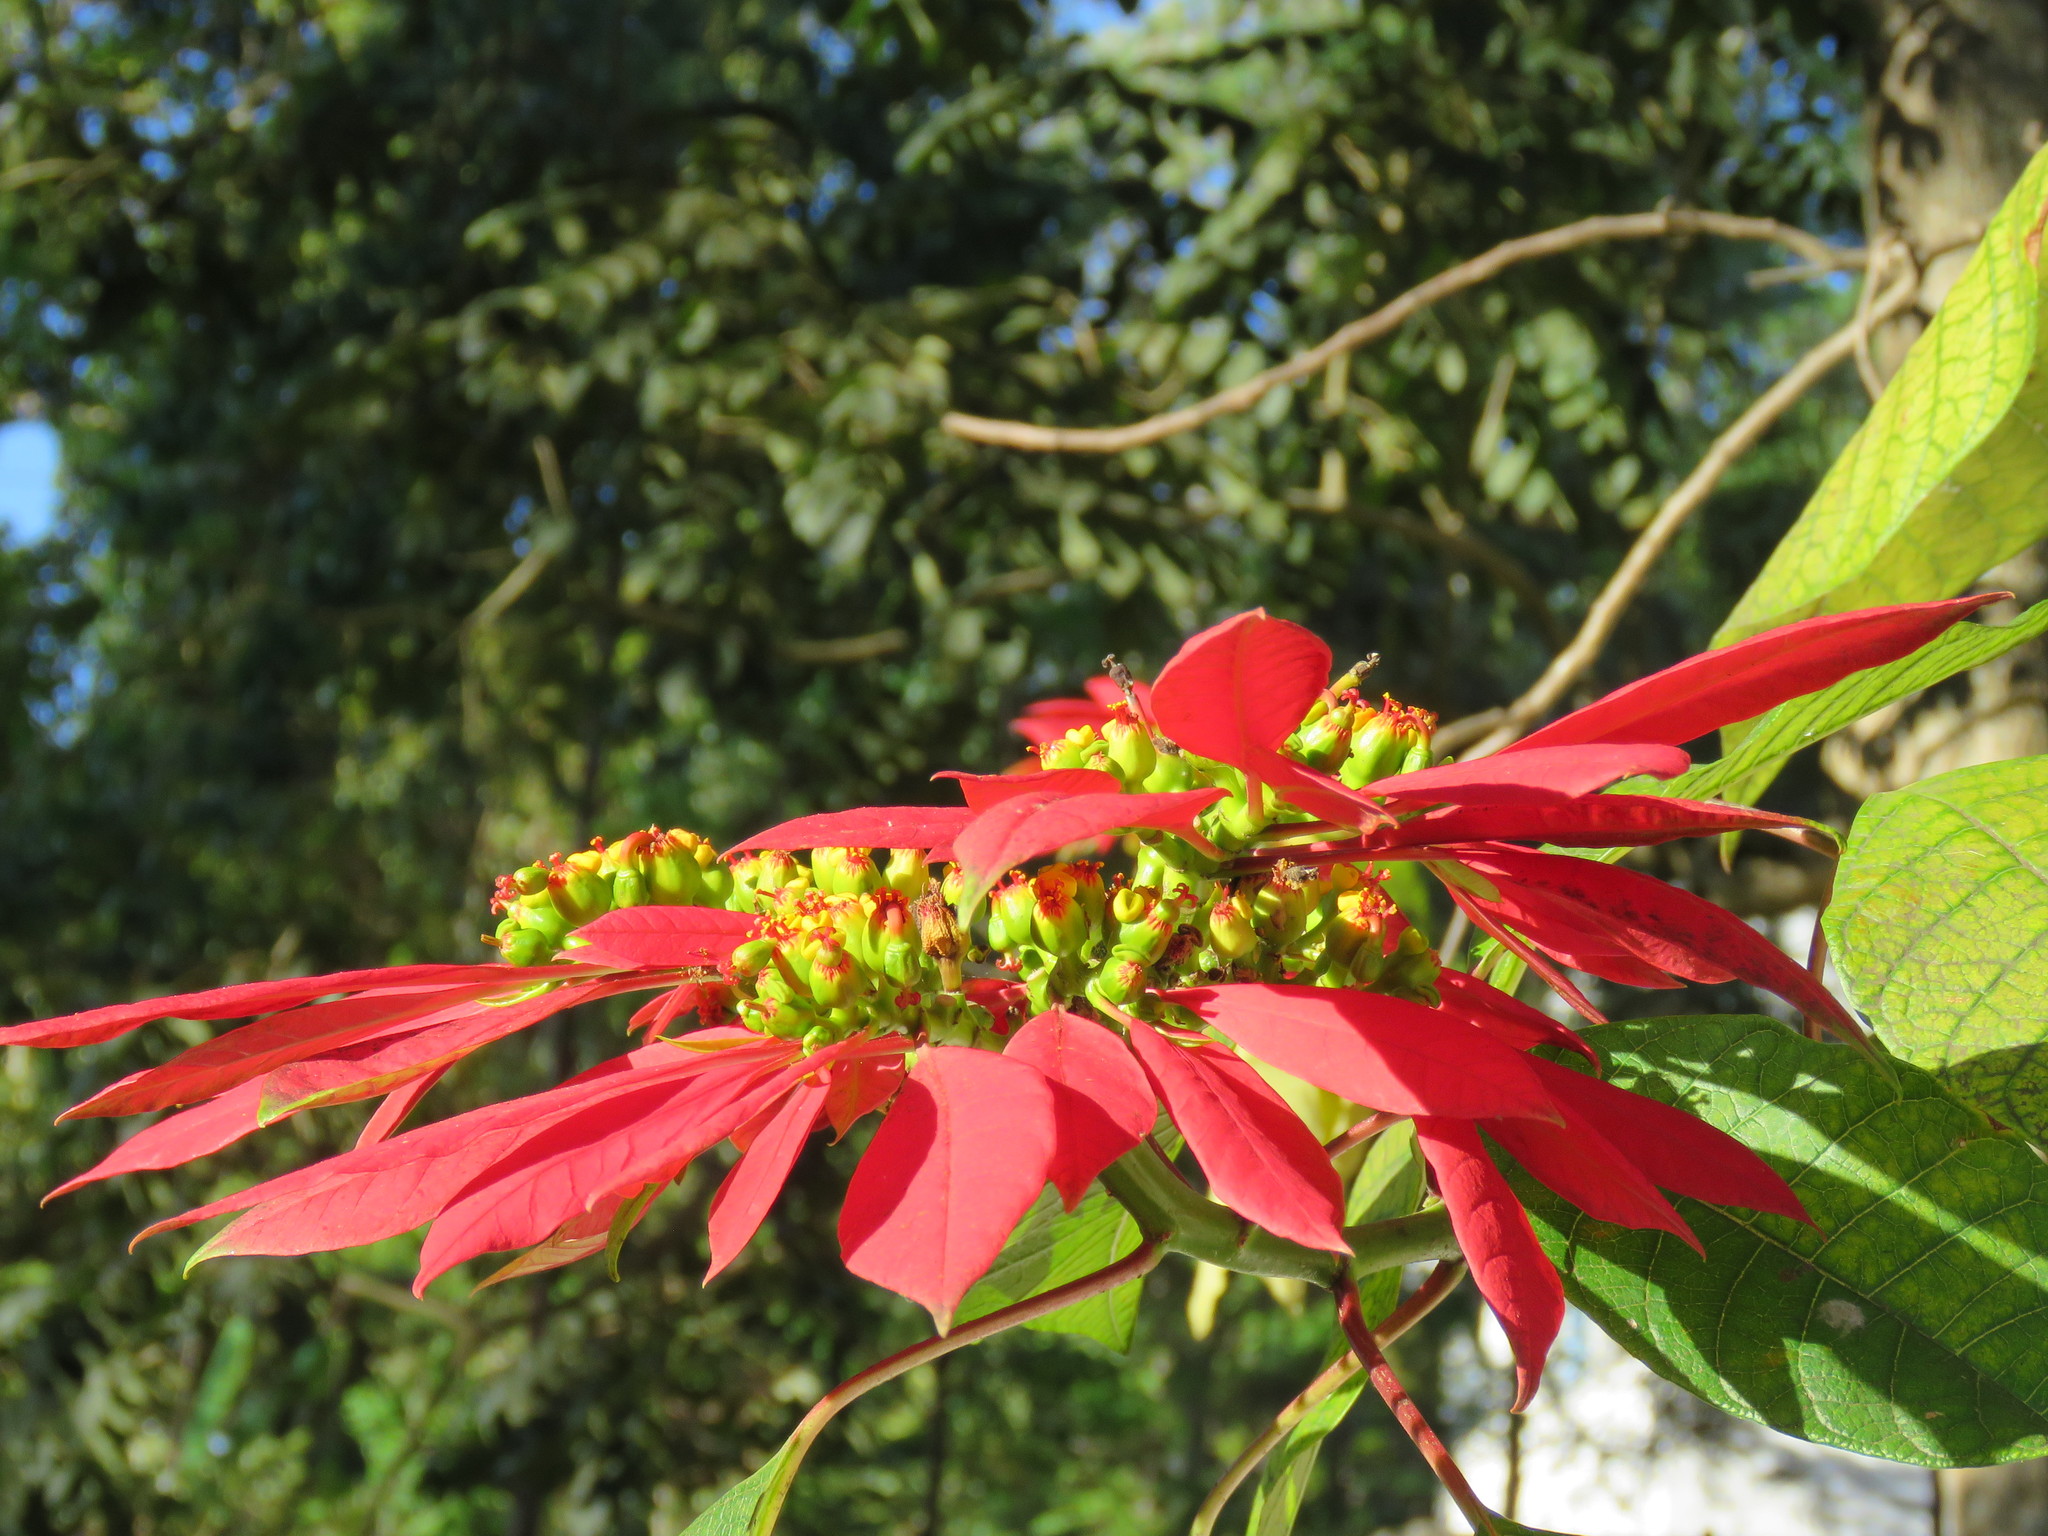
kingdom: Plantae
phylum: Tracheophyta
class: Magnoliopsida
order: Malpighiales
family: Euphorbiaceae
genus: Euphorbia
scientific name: Euphorbia pulcherrima
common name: Christmas-flower
